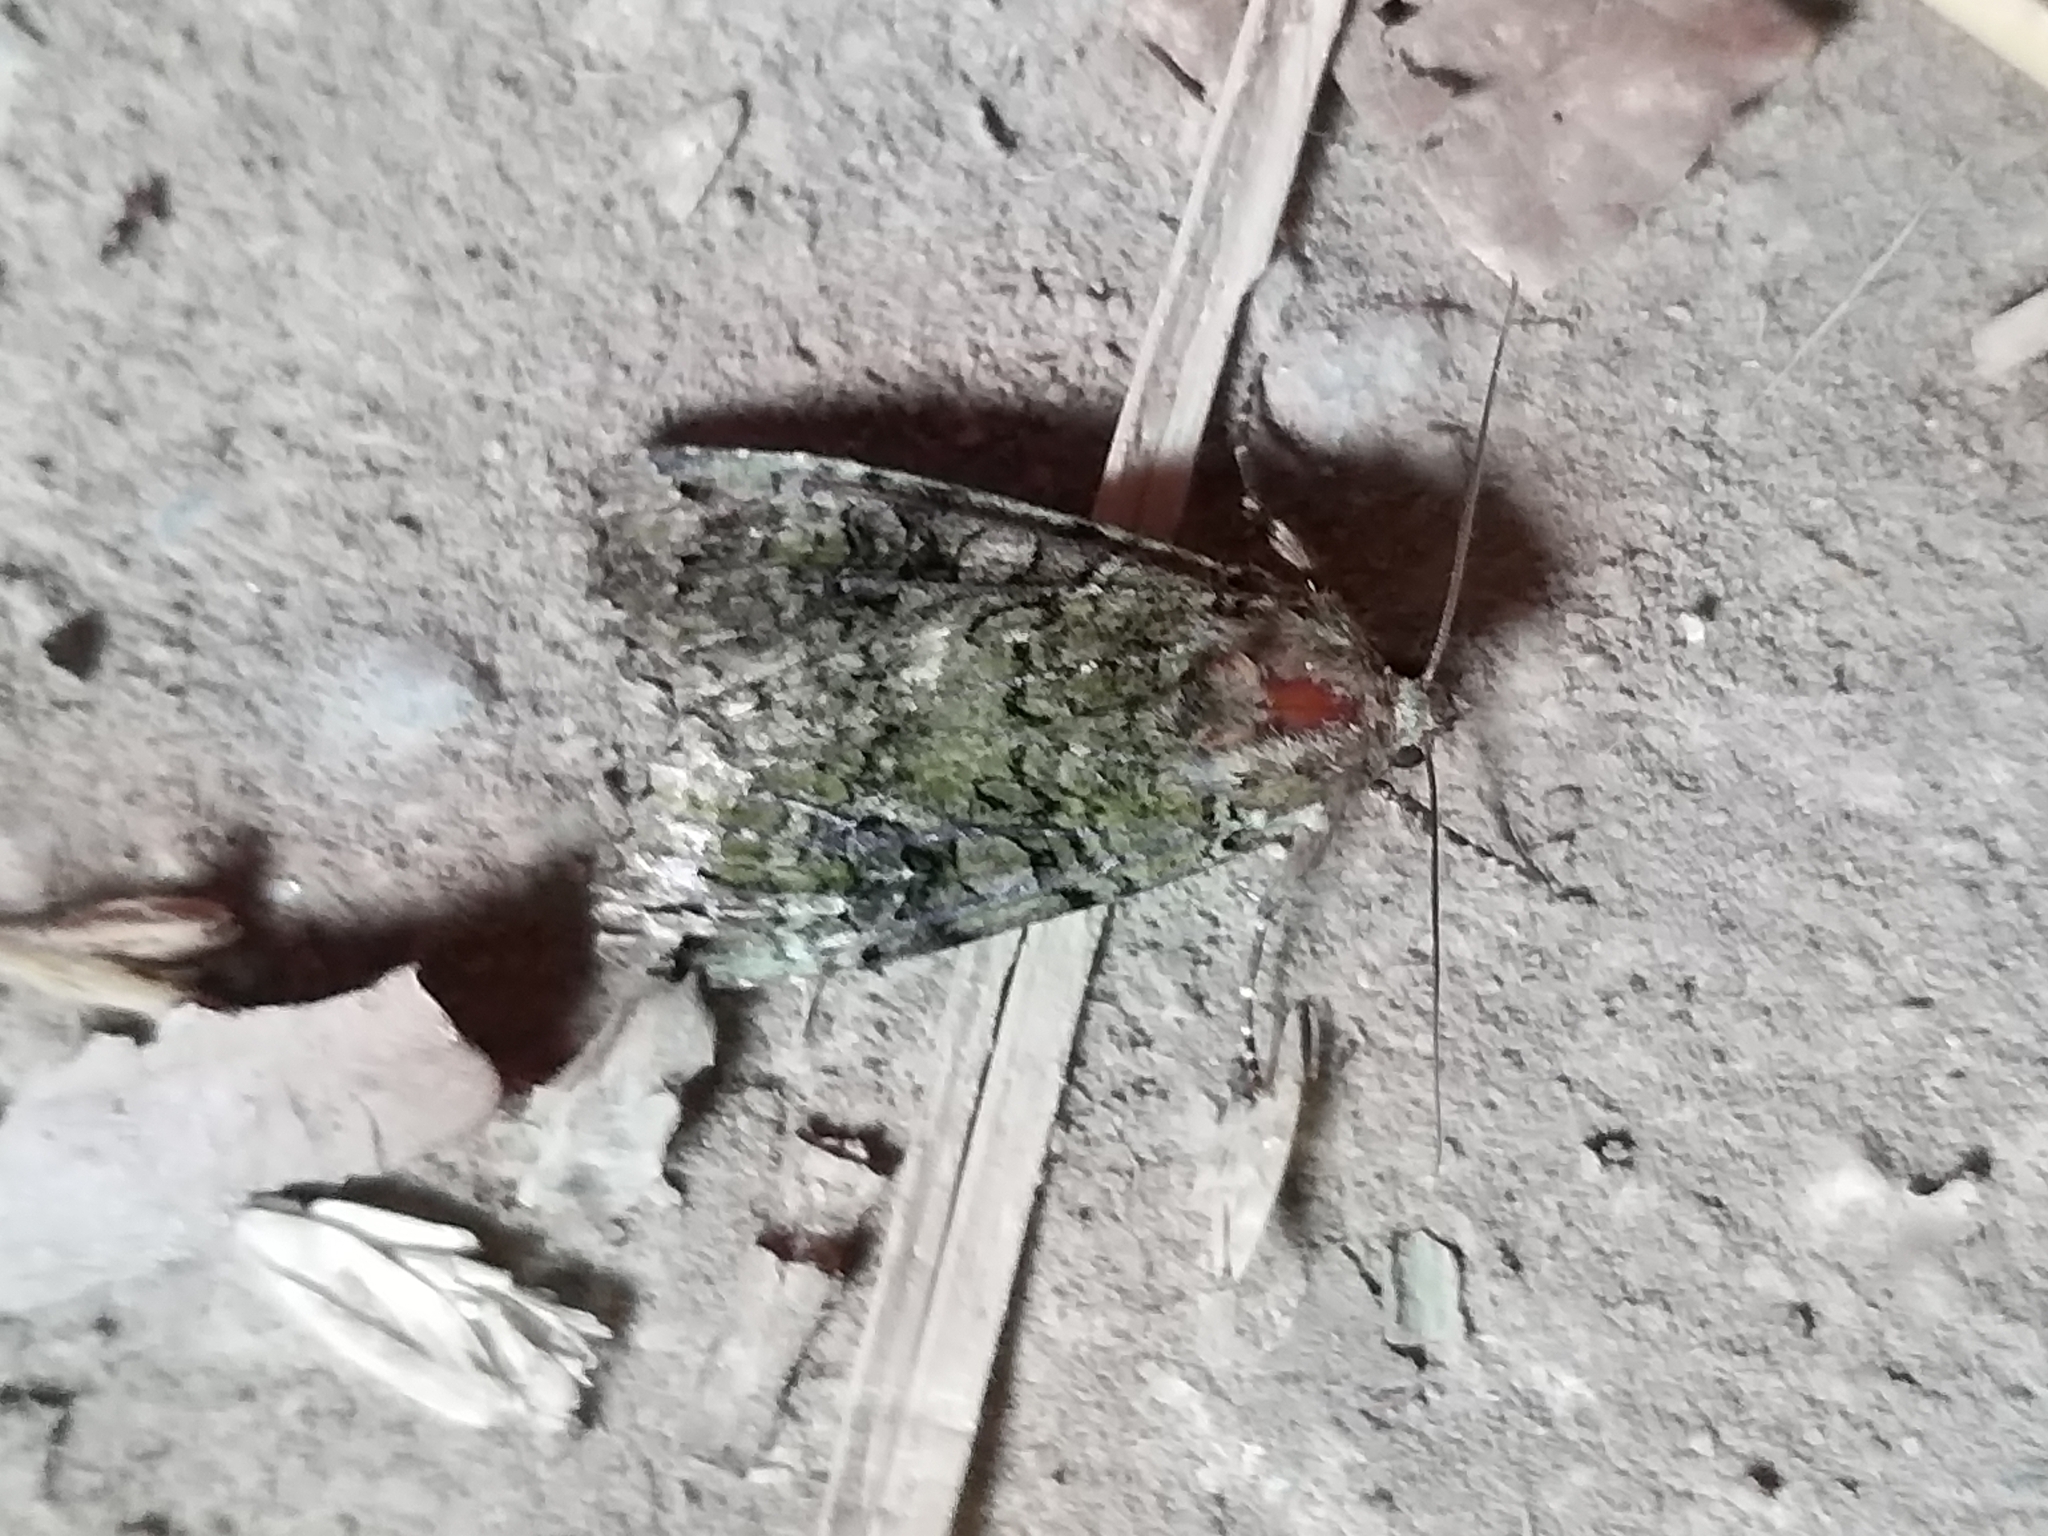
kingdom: Animalia
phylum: Arthropoda
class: Insecta
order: Lepidoptera
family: Noctuidae
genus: Anaplectoides
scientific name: Anaplectoides prasina
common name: Green arches
